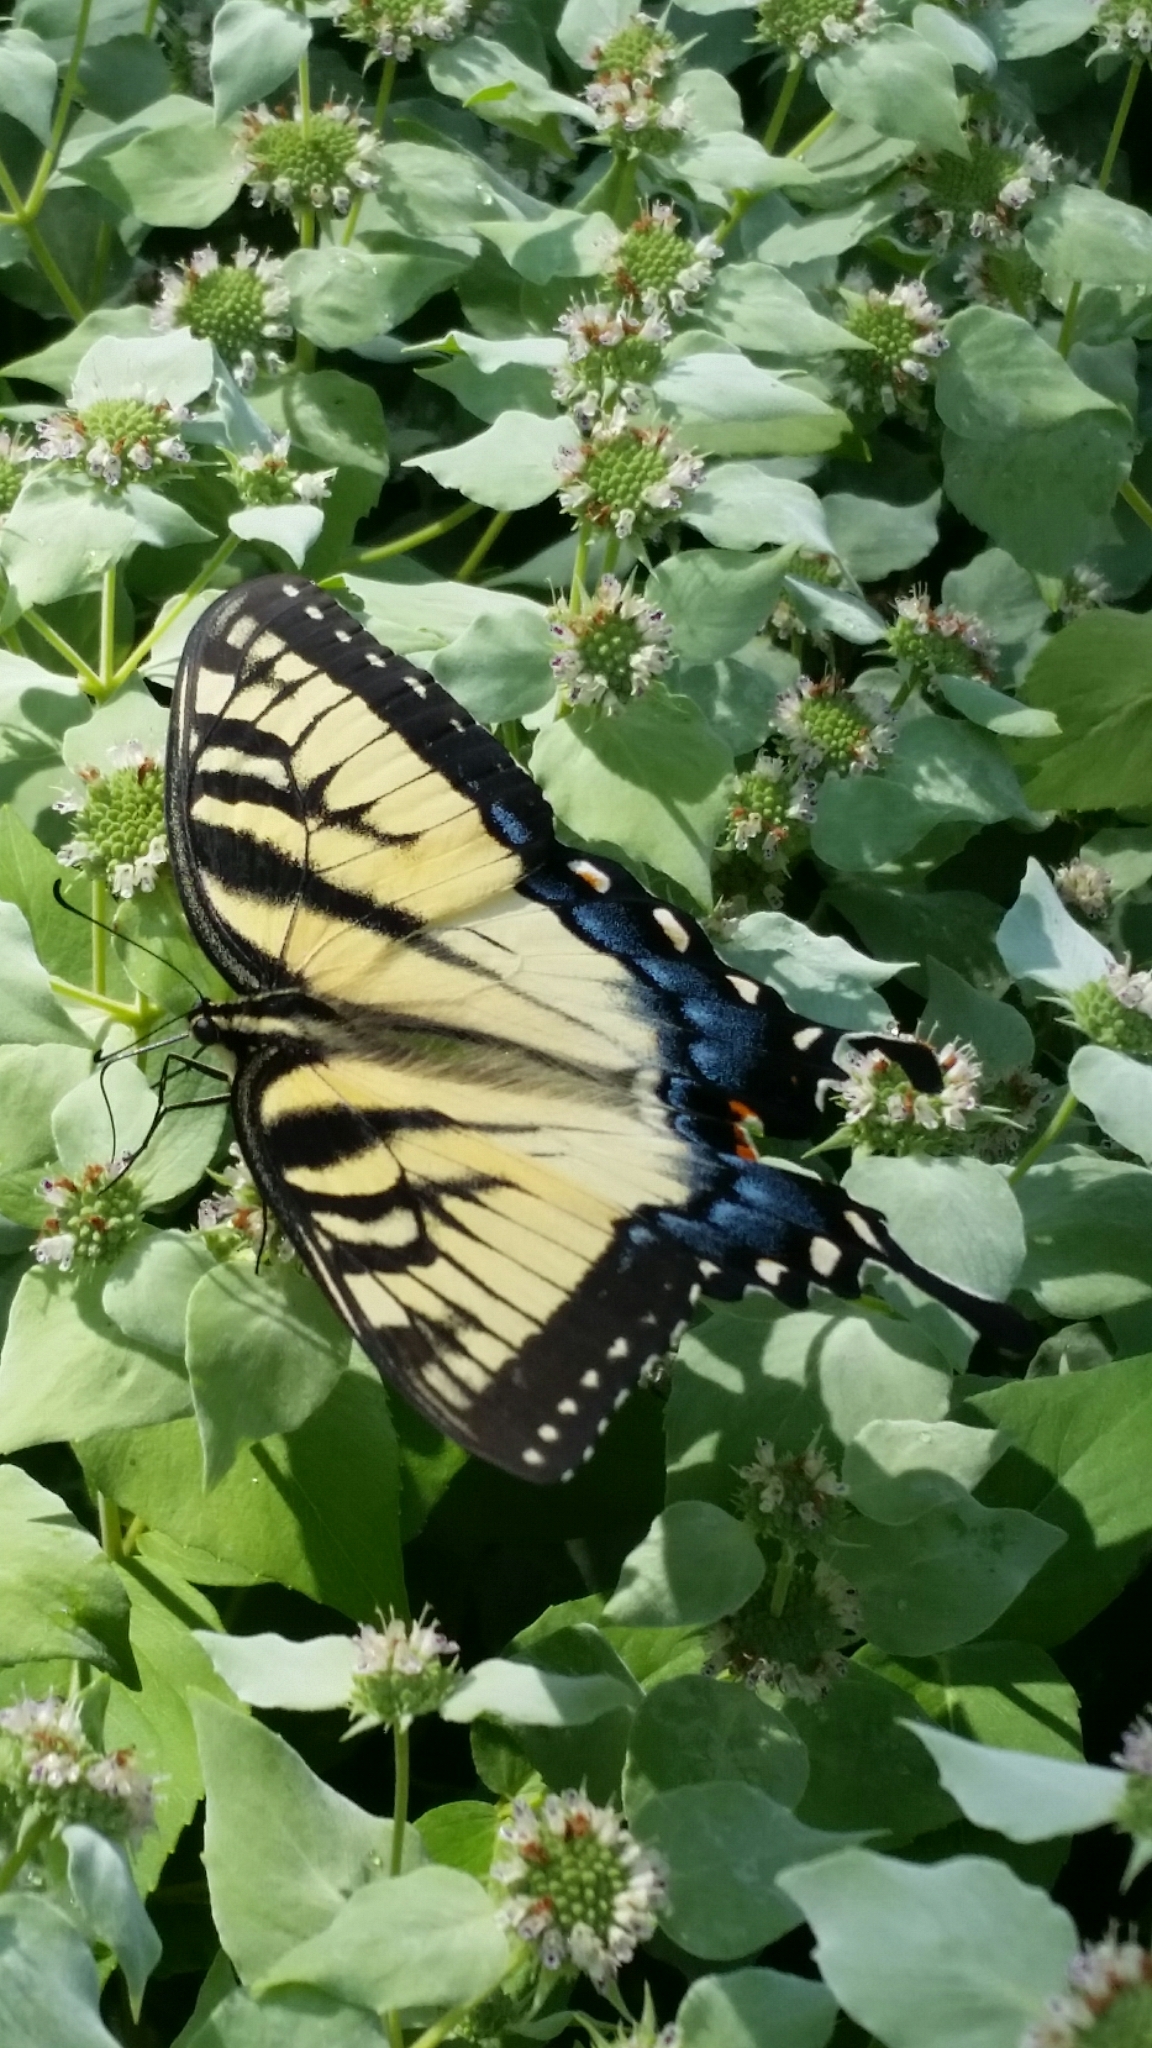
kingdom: Animalia
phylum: Arthropoda
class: Insecta
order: Lepidoptera
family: Papilionidae
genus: Papilio
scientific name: Papilio glaucus
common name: Tiger swallowtail
